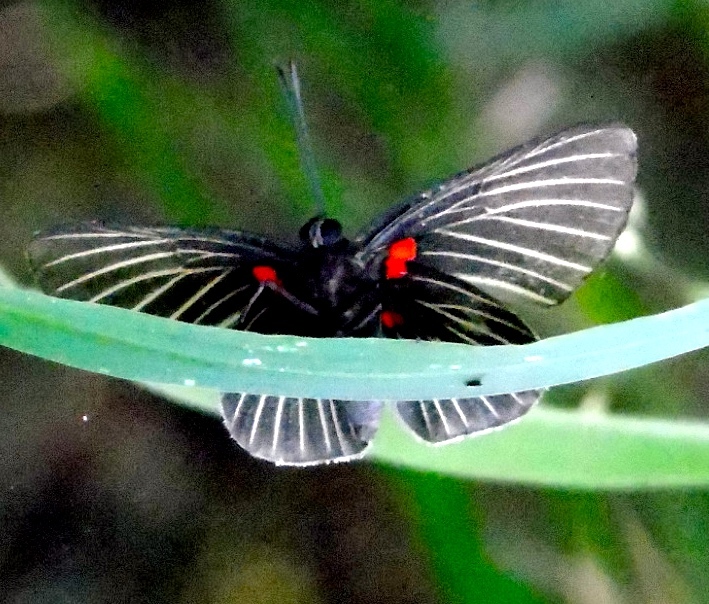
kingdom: Animalia
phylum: Arthropoda
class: Insecta
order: Lepidoptera
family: Lycaenidae
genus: Melanis
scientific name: Melanis
